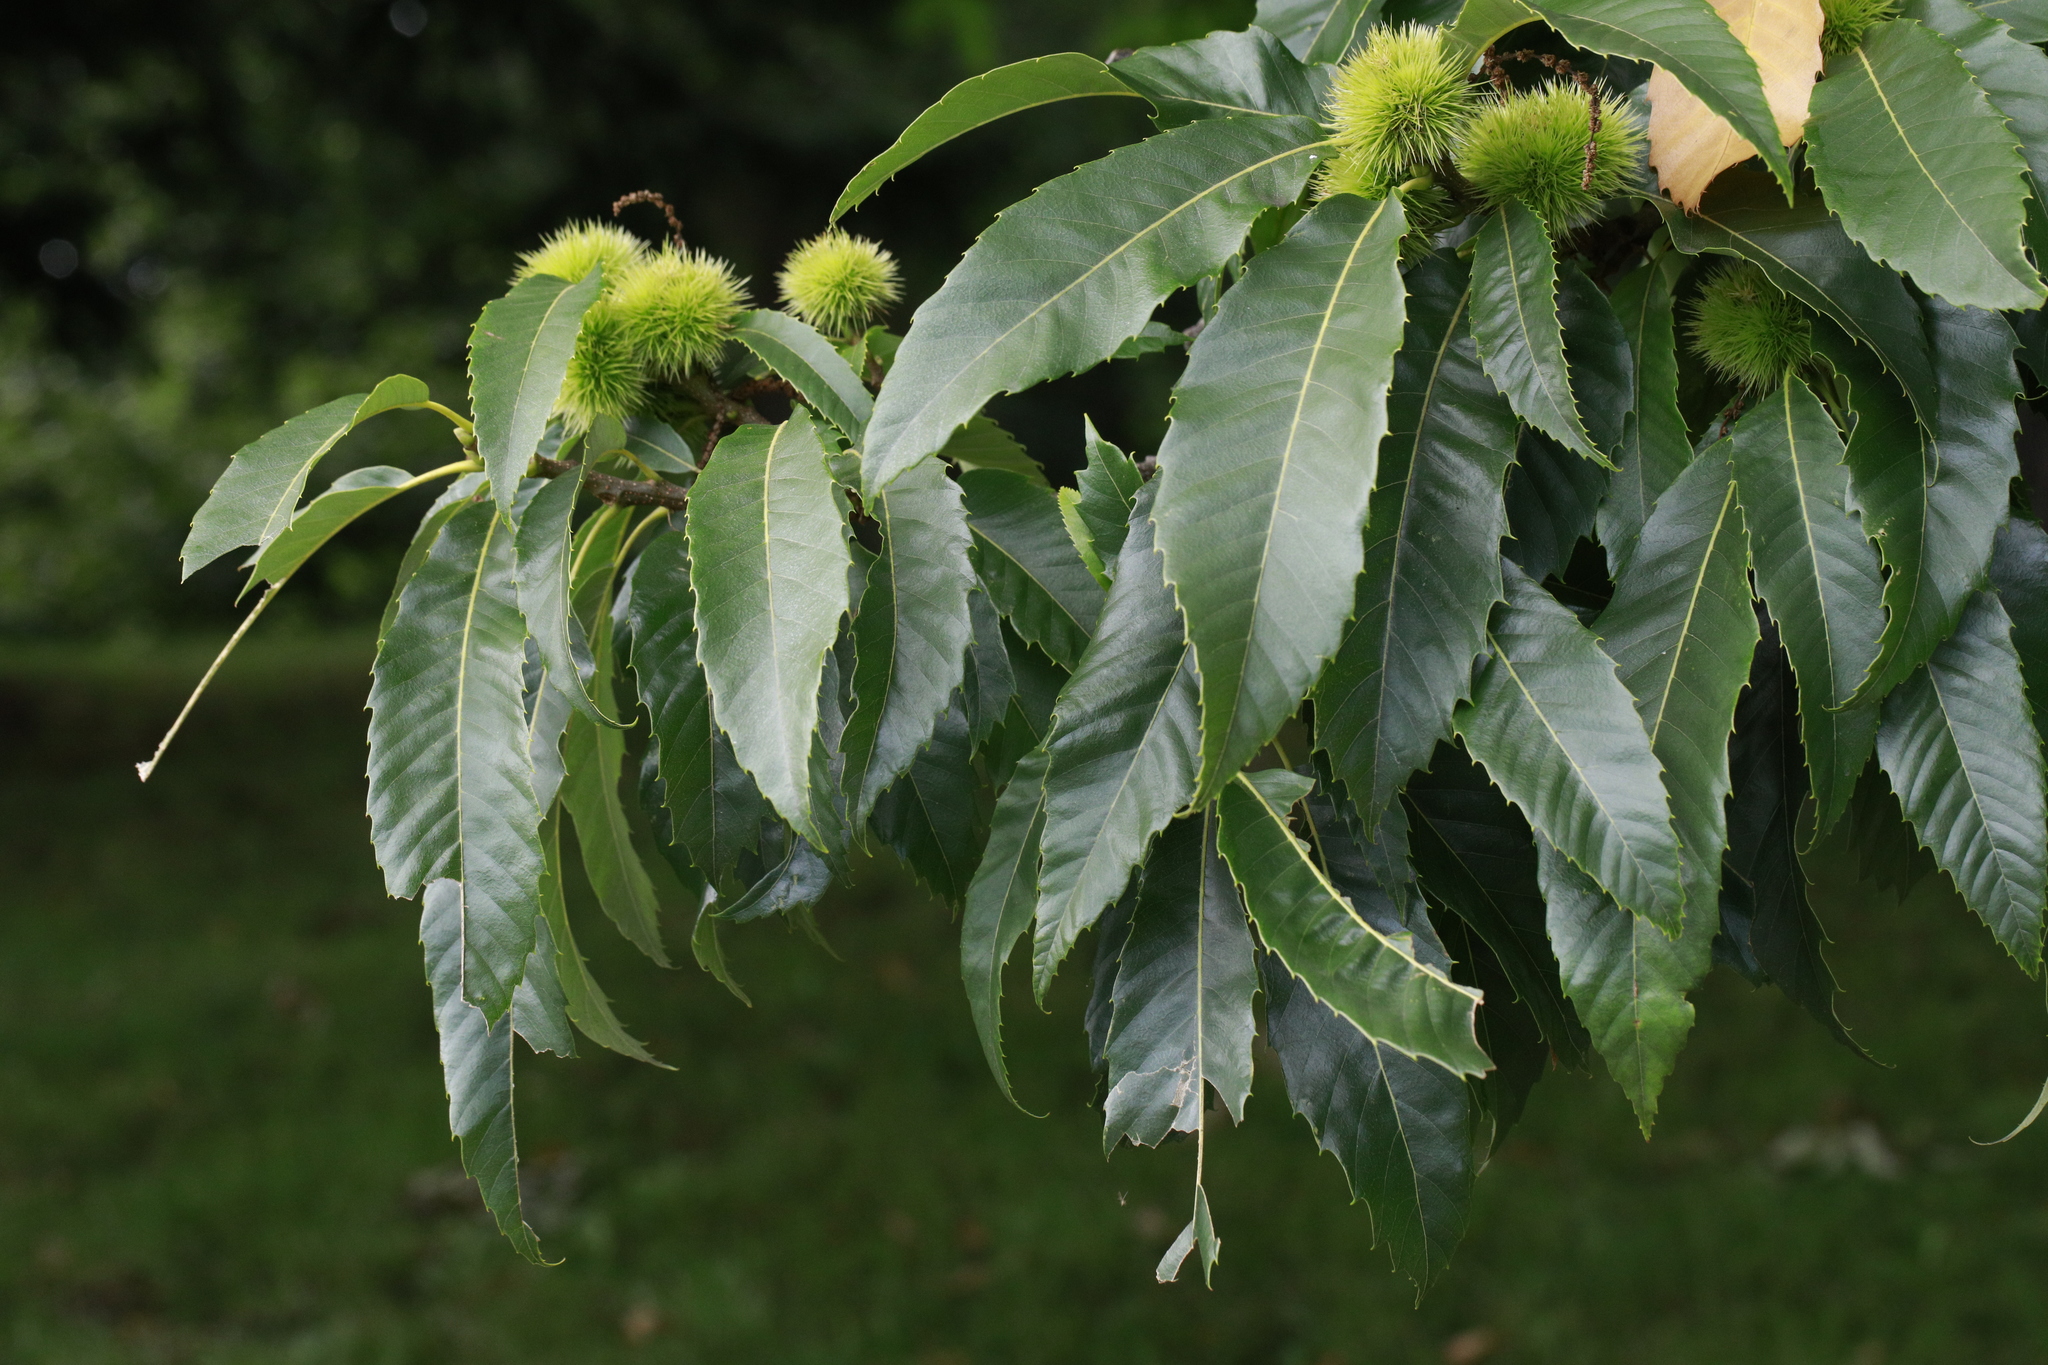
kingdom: Plantae
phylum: Tracheophyta
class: Magnoliopsida
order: Fagales
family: Fagaceae
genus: Castanea
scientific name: Castanea sativa
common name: Sweet chestnut
